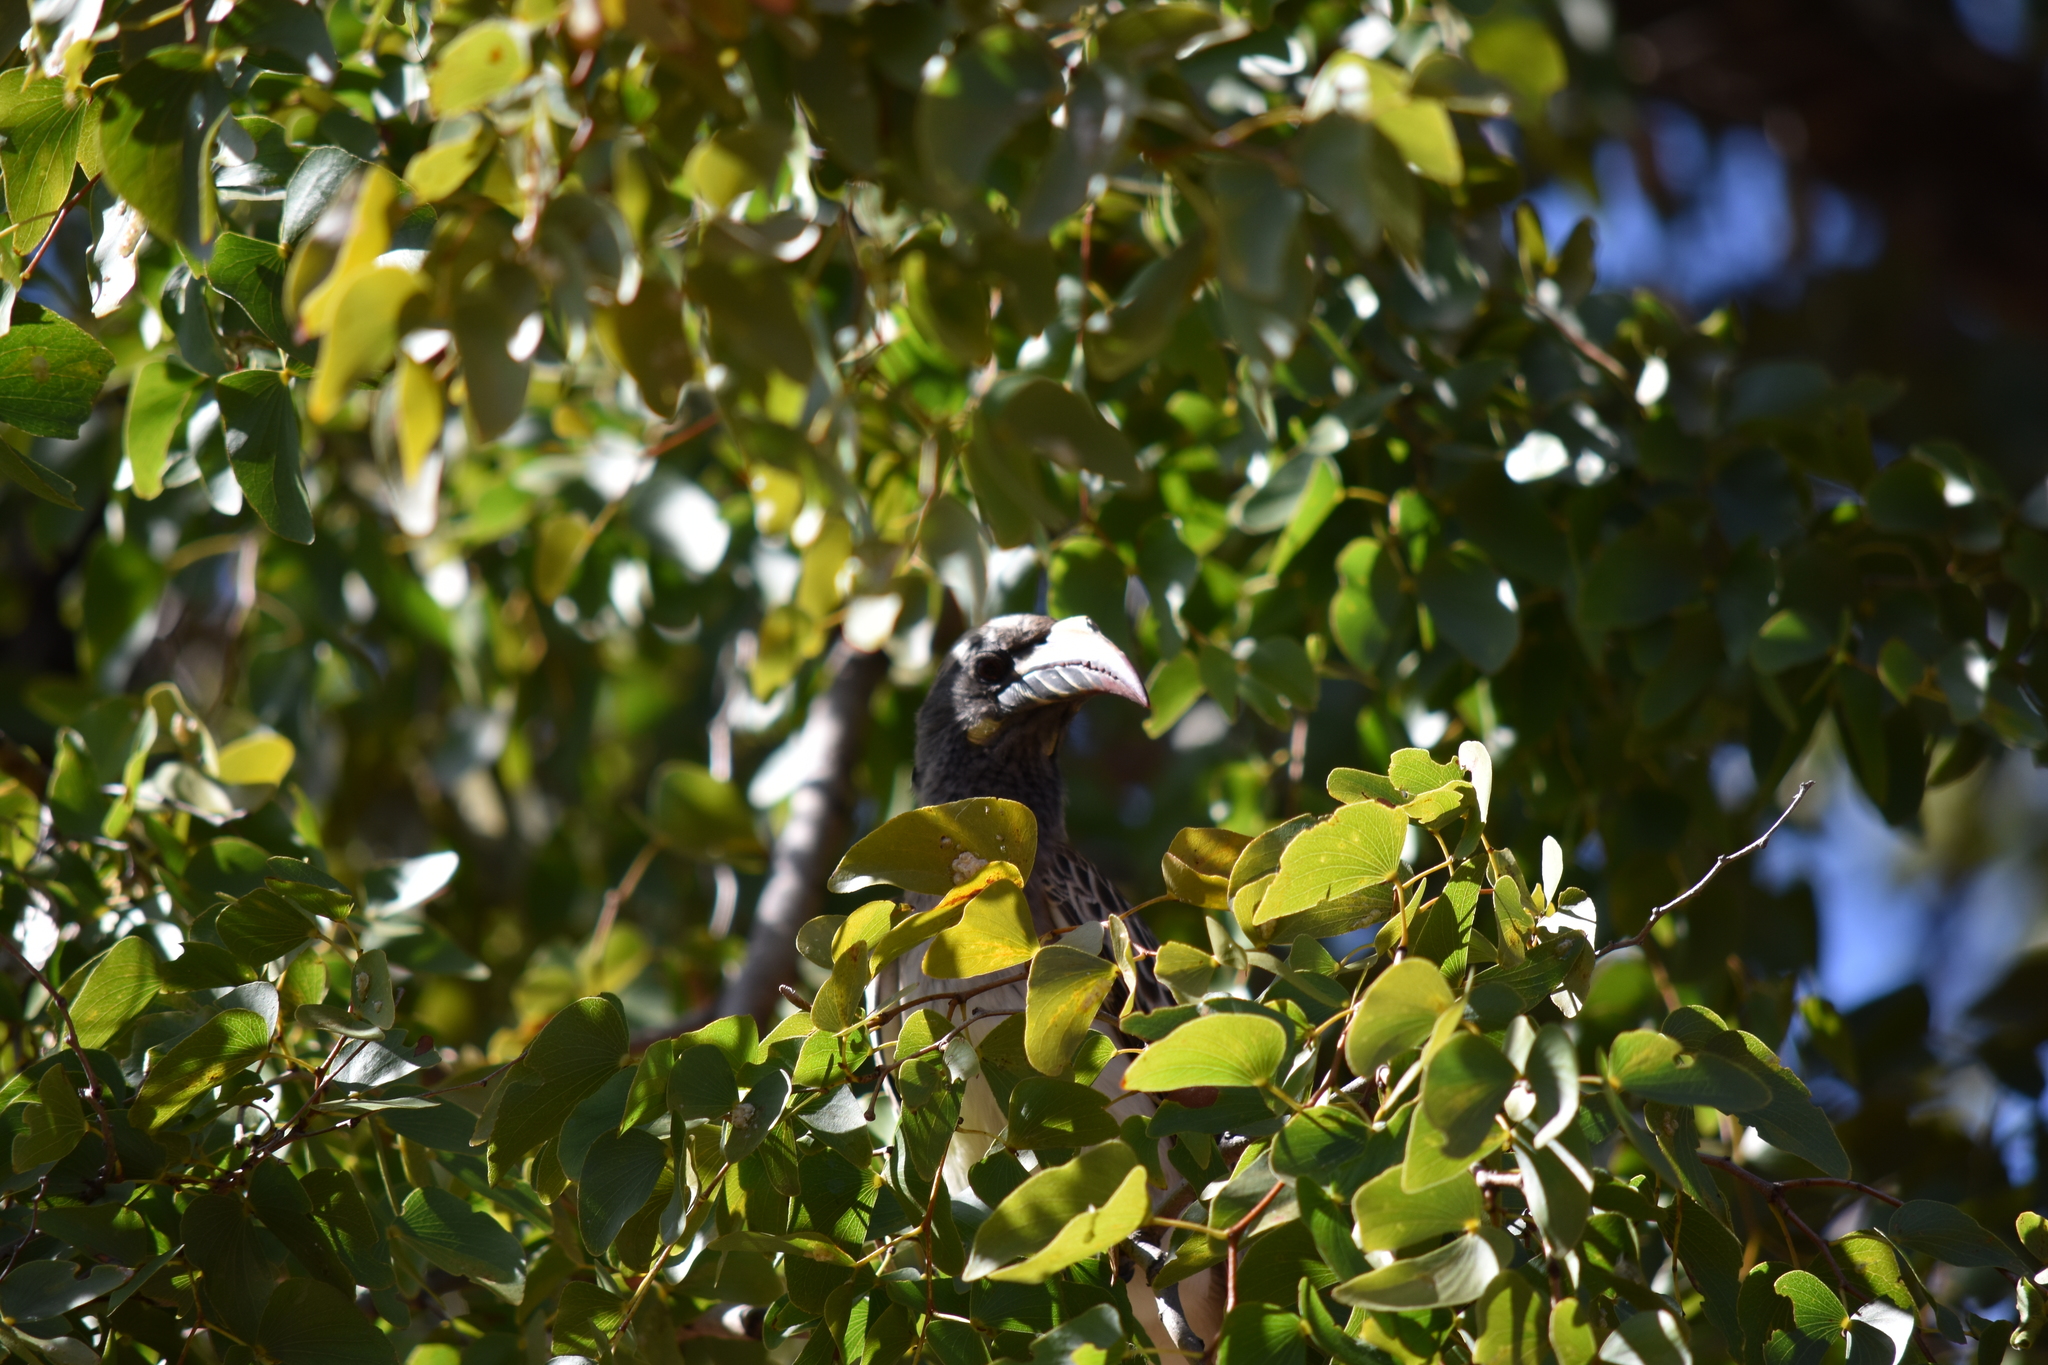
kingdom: Animalia
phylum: Chordata
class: Aves
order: Bucerotiformes
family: Bucerotidae
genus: Lophoceros
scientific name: Lophoceros nasutus
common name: African grey hornbill
